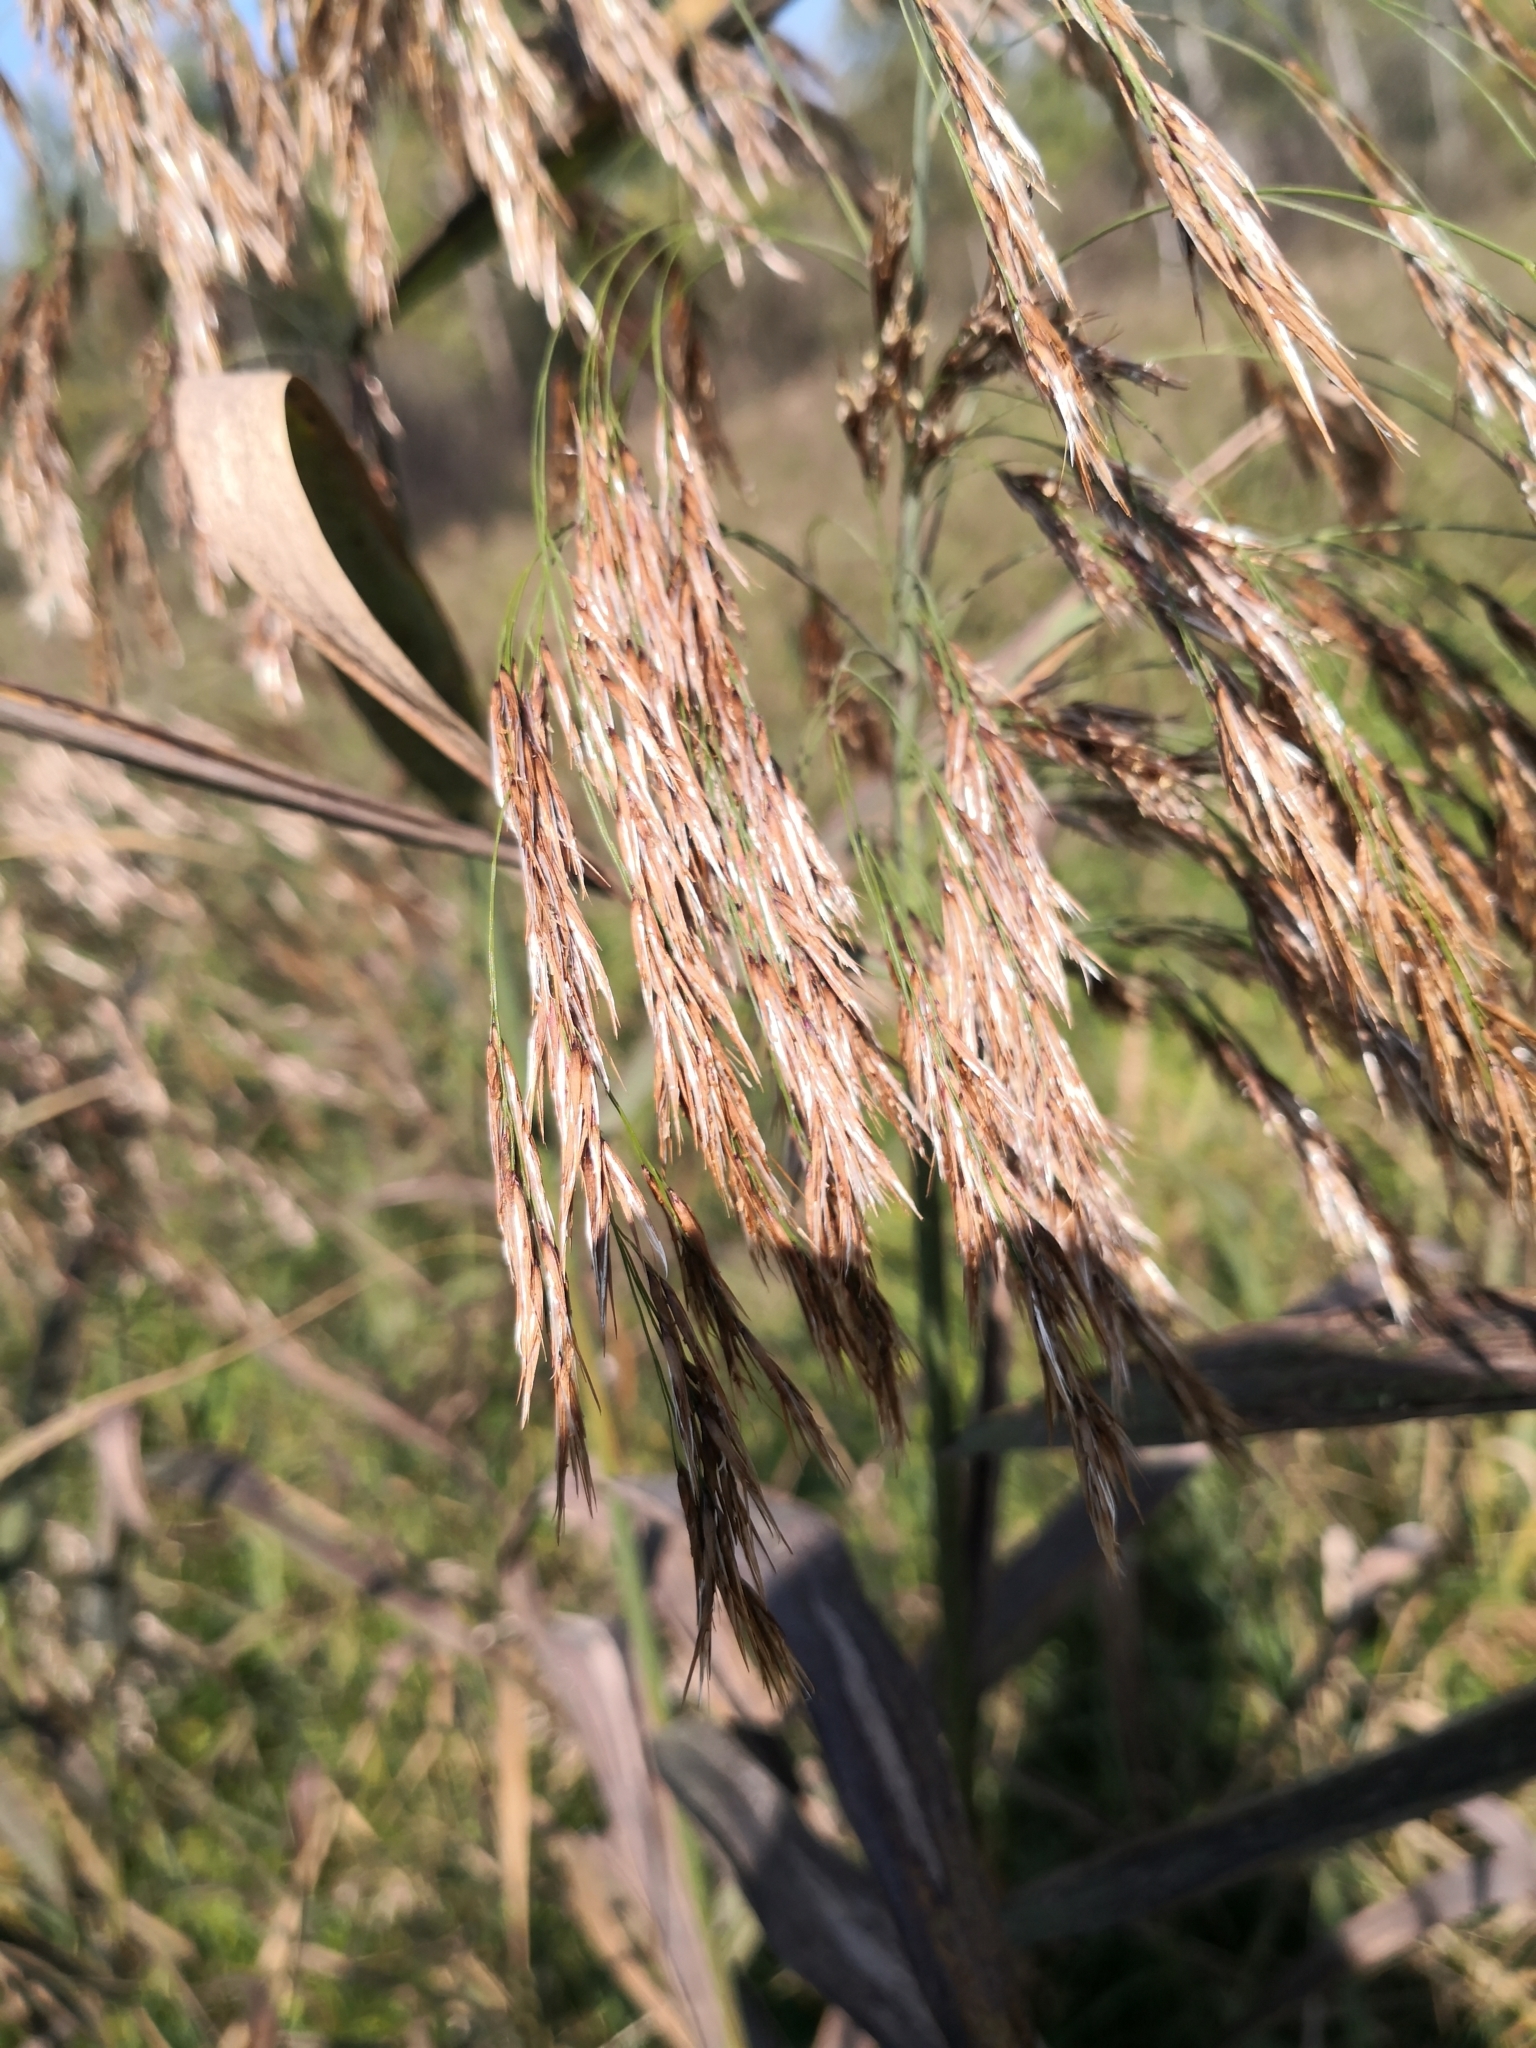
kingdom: Plantae
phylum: Tracheophyta
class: Liliopsida
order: Poales
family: Poaceae
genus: Phragmites
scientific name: Phragmites australis
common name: Common reed
